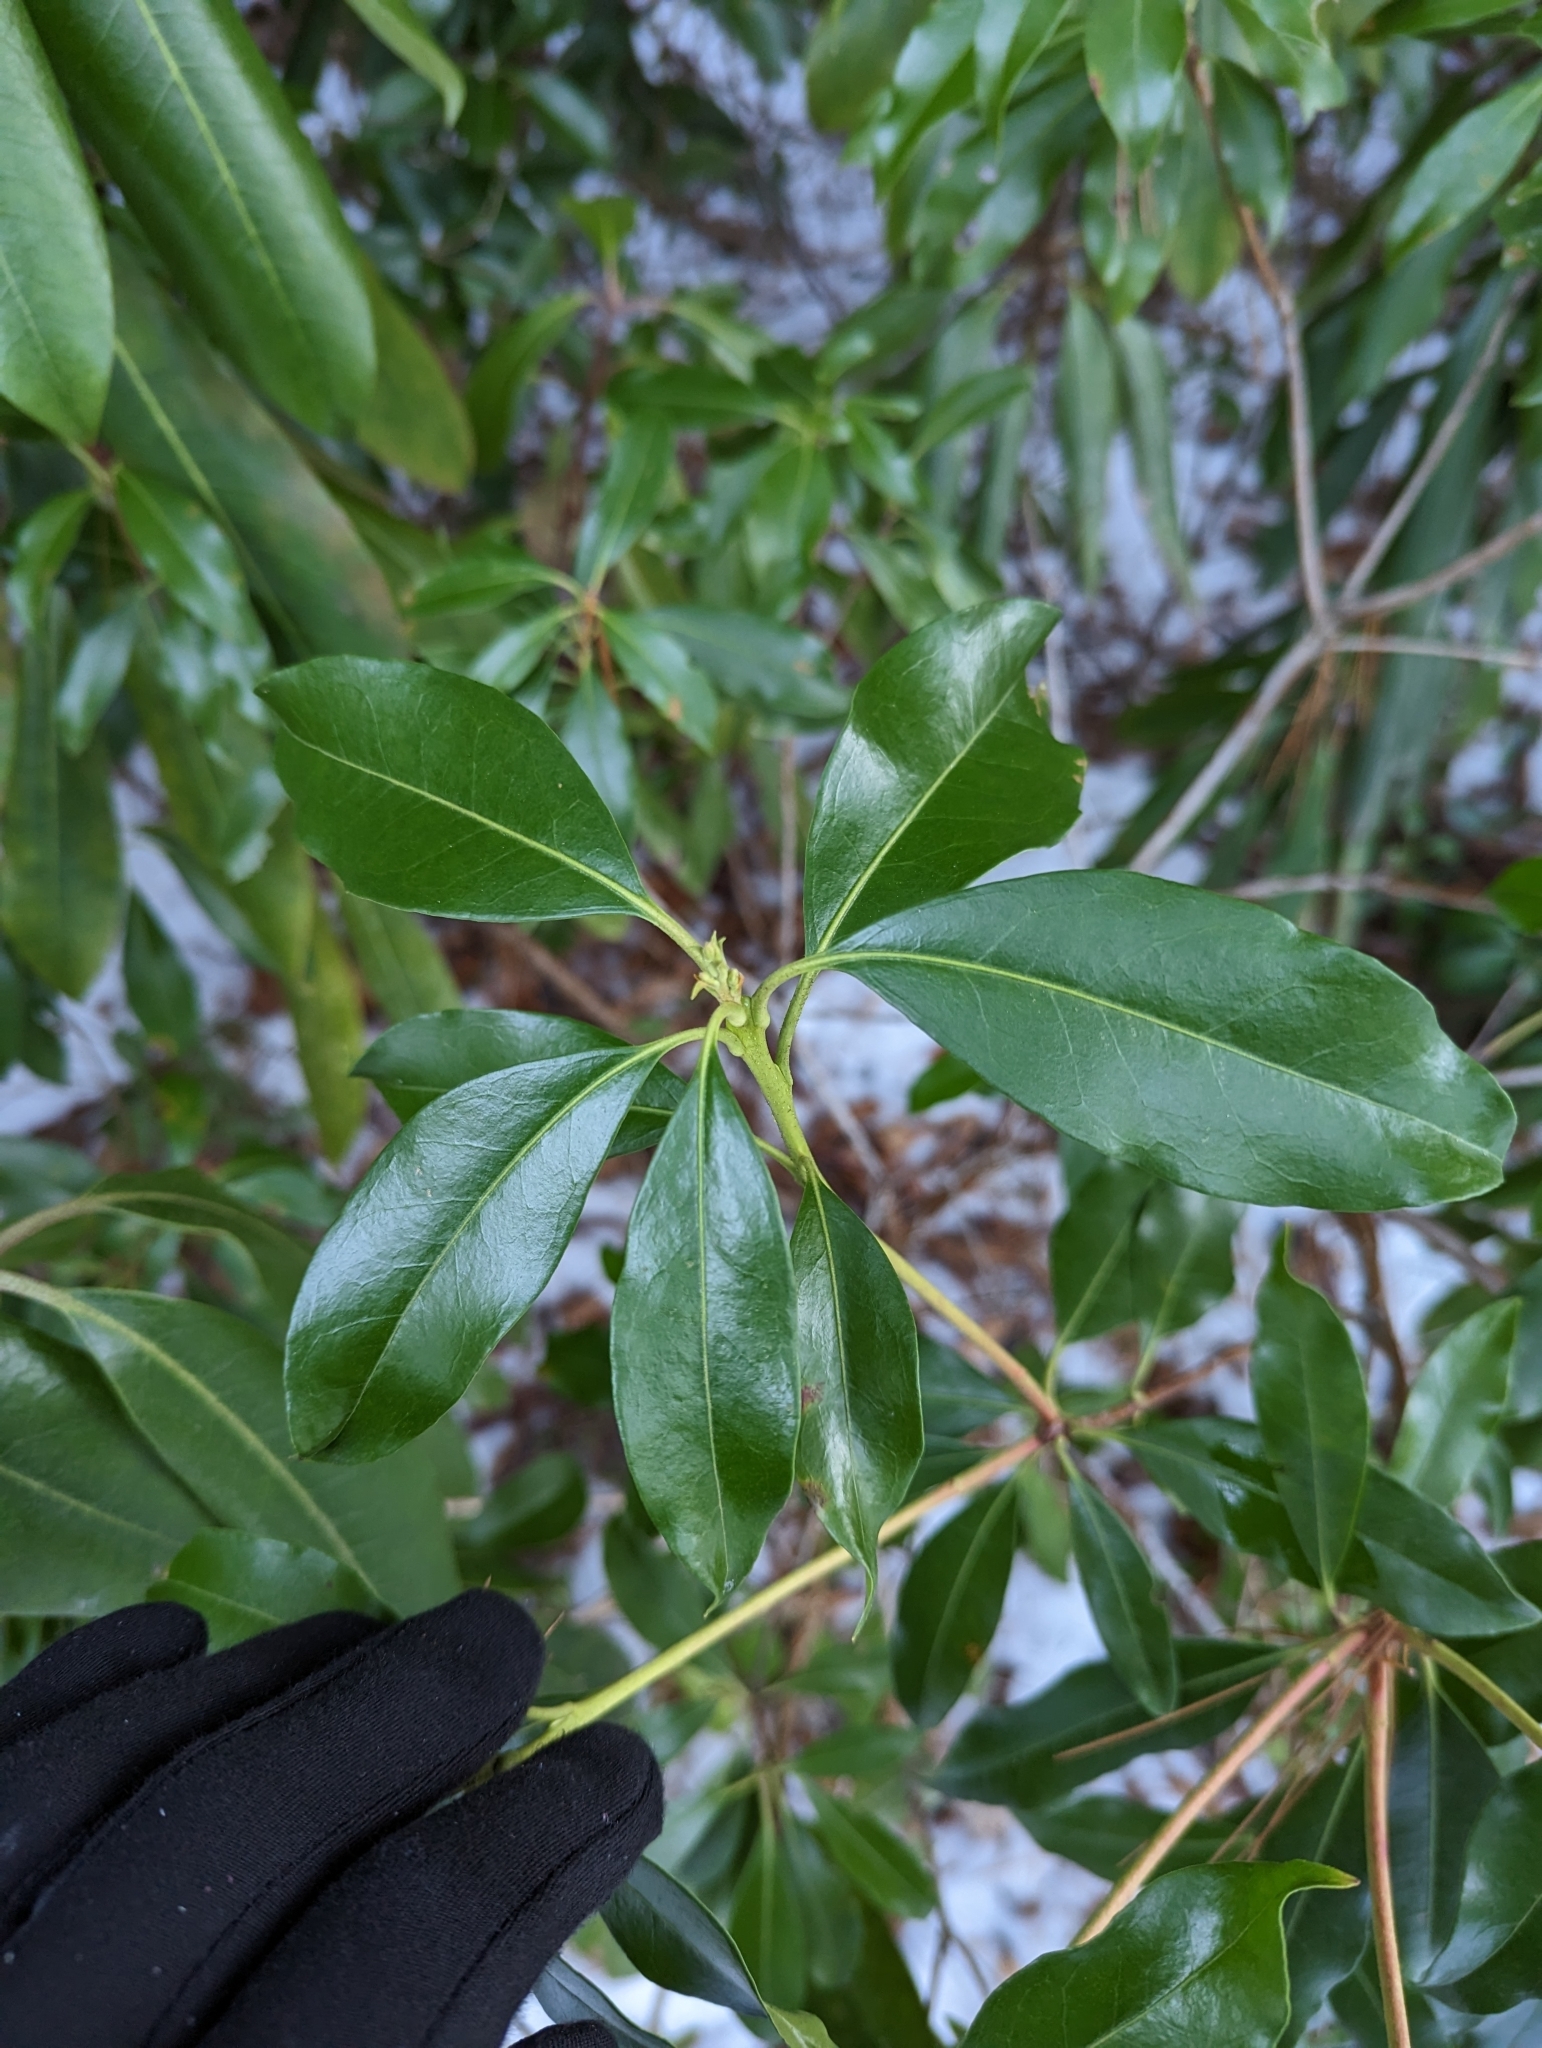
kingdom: Plantae
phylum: Tracheophyta
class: Magnoliopsida
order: Ericales
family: Ericaceae
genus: Kalmia
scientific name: Kalmia latifolia
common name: Mountain-laurel
